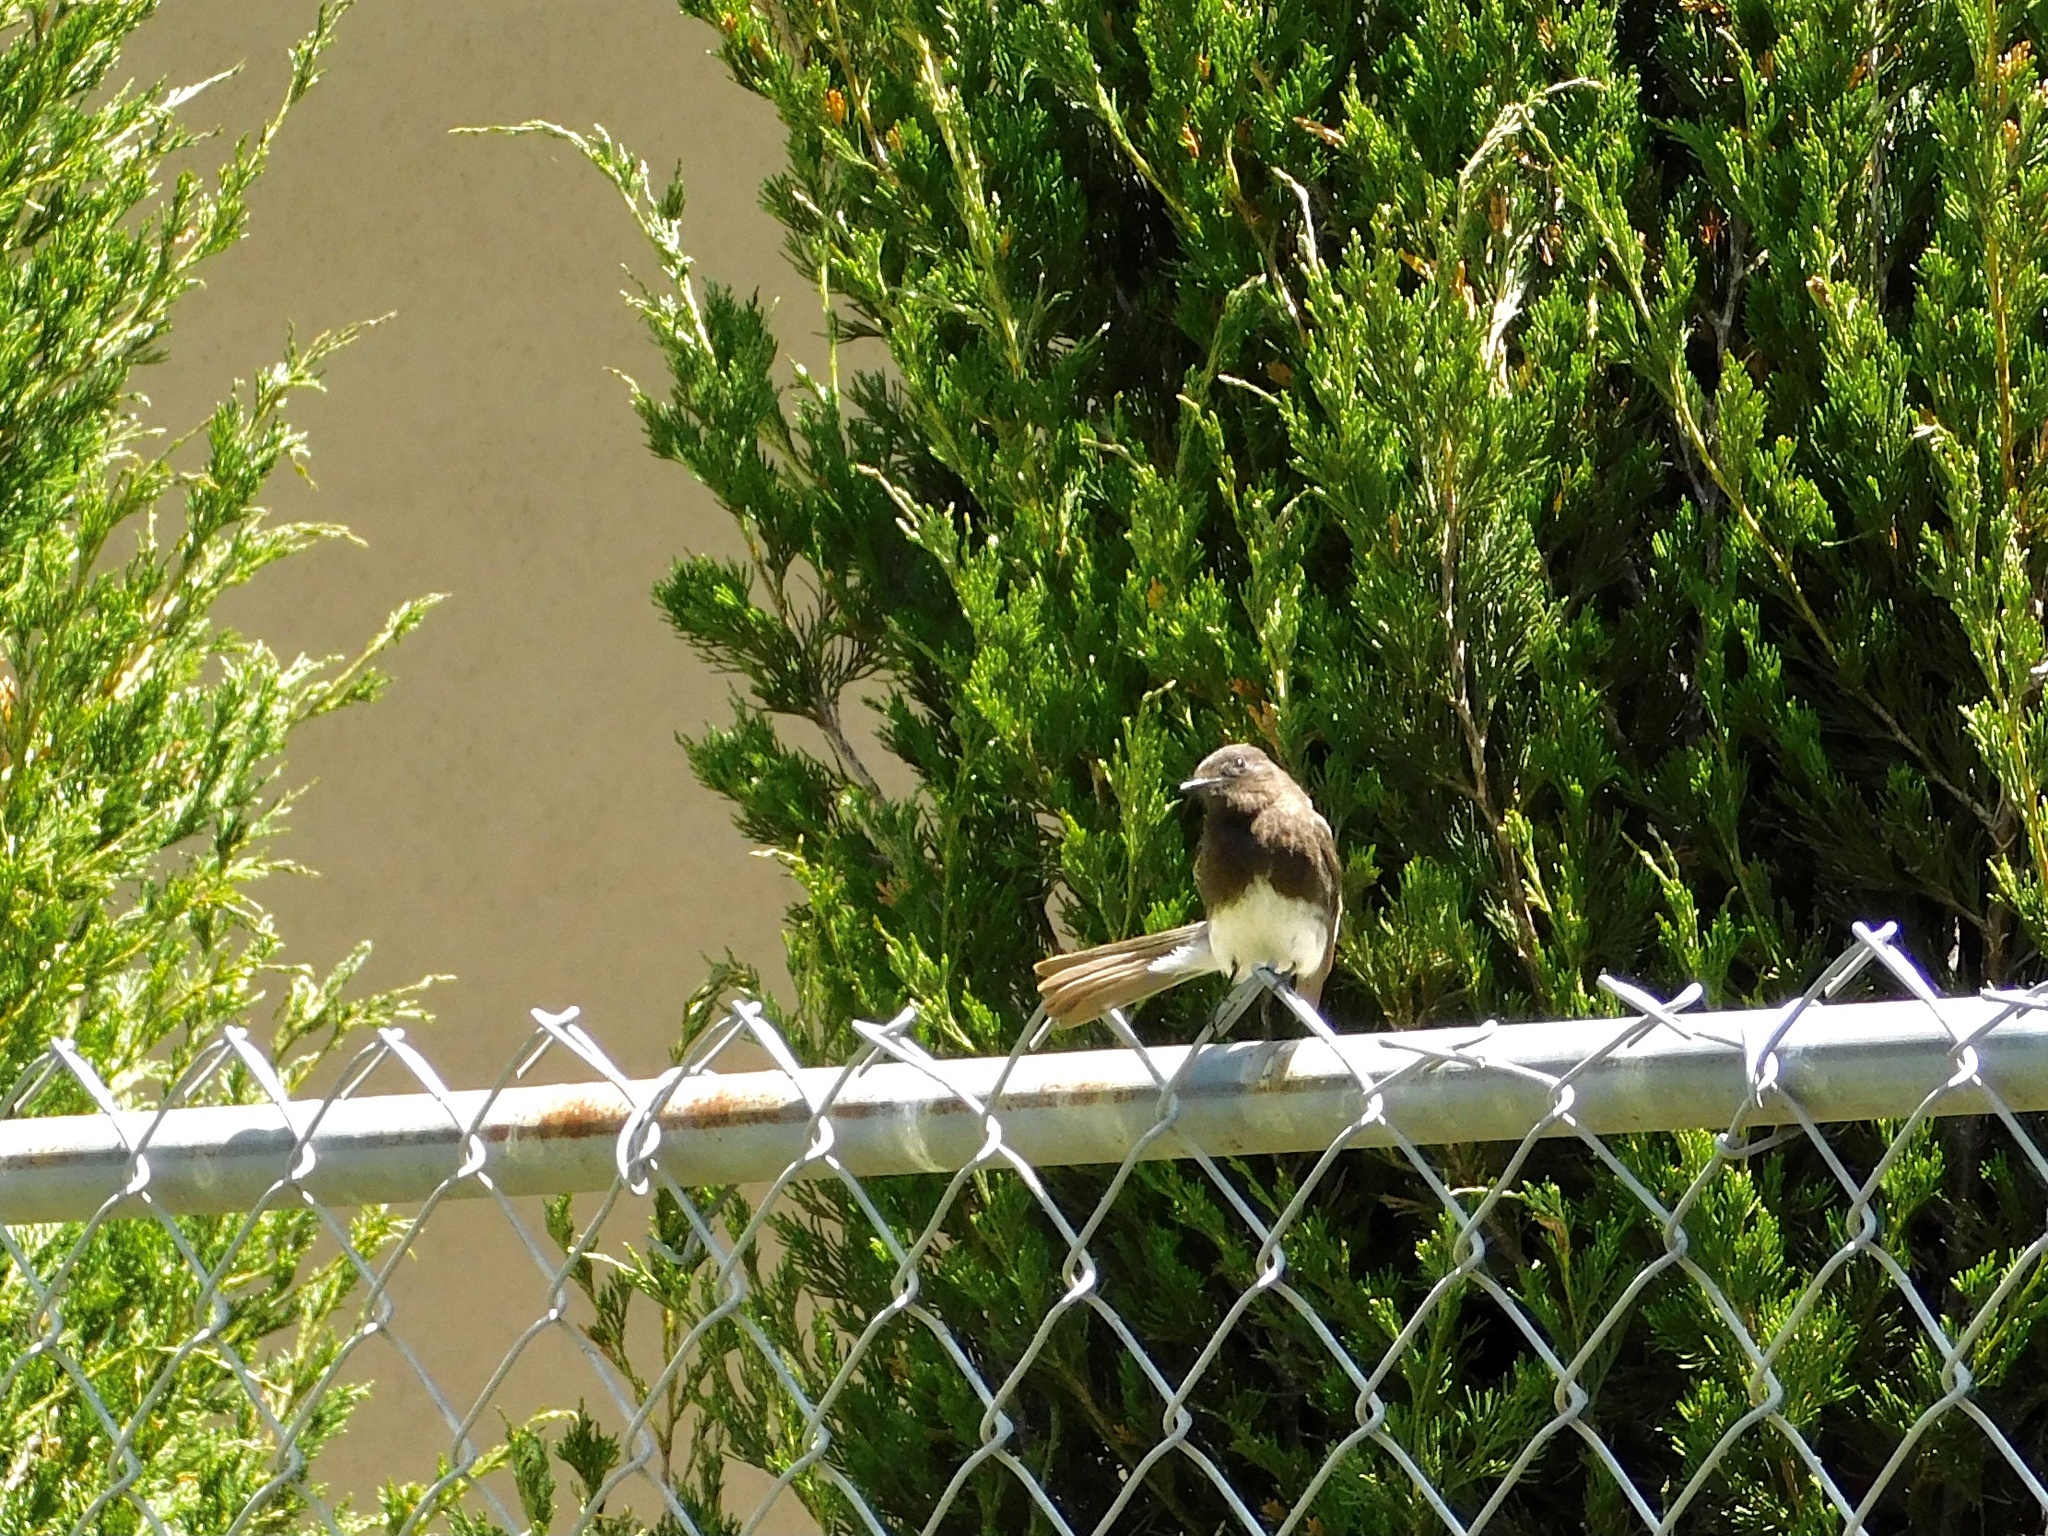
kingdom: Animalia
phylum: Chordata
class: Aves
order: Passeriformes
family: Tyrannidae
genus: Sayornis
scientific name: Sayornis nigricans
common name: Black phoebe
